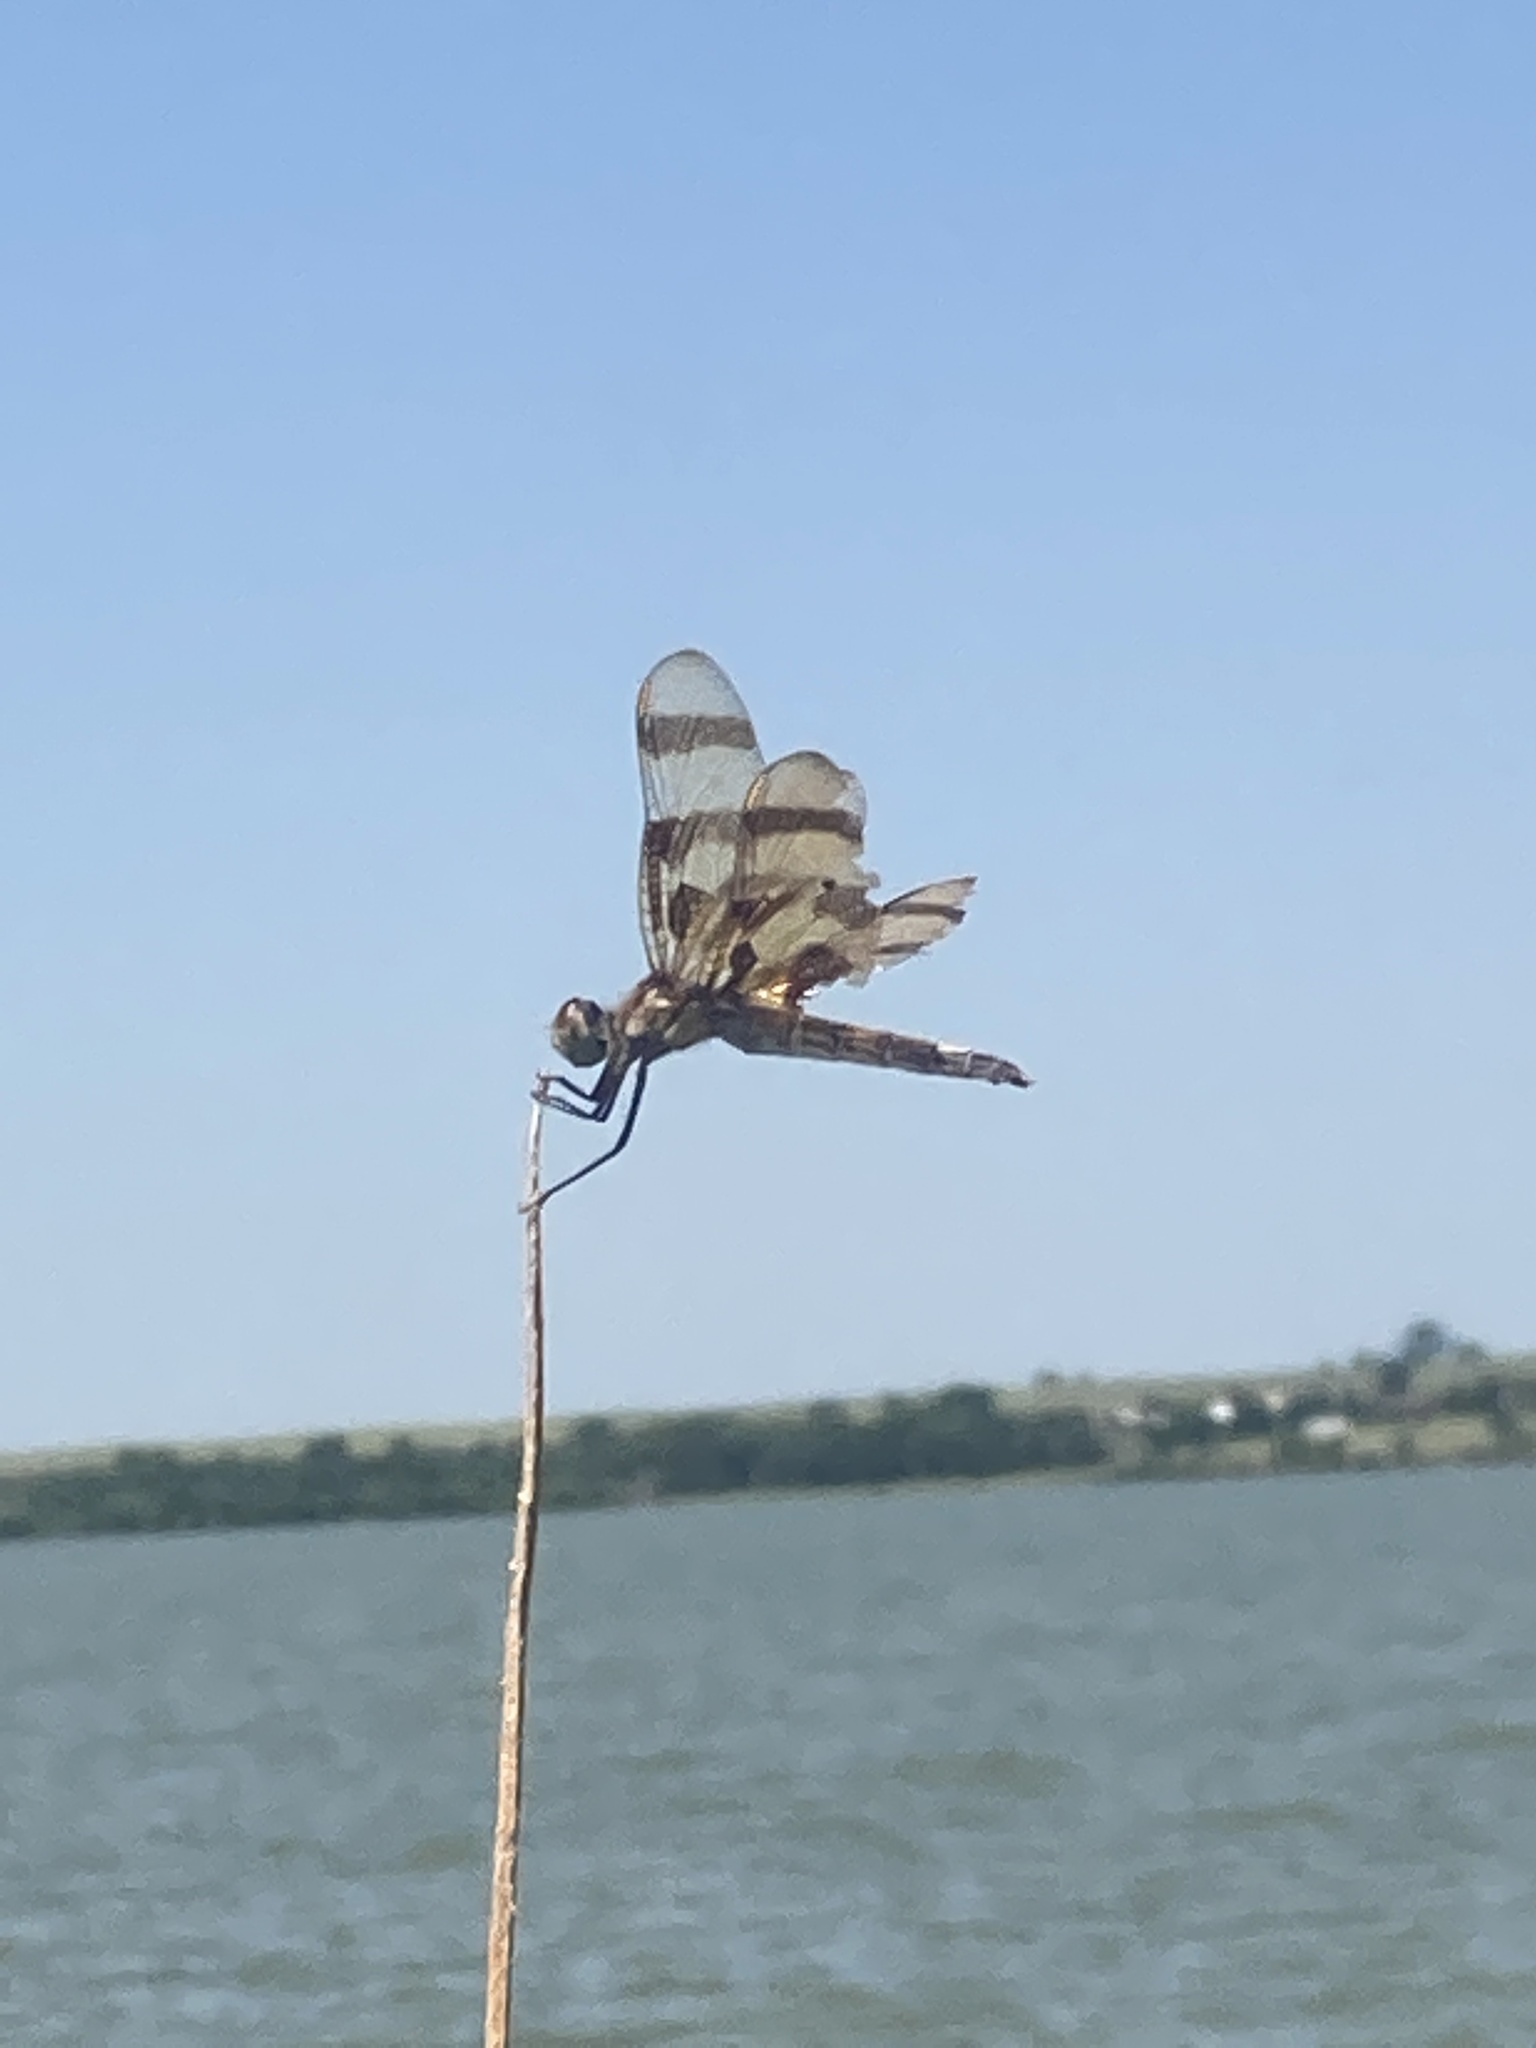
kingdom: Animalia
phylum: Arthropoda
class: Insecta
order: Odonata
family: Libellulidae
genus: Celithemis
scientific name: Celithemis eponina
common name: Halloween pennant
